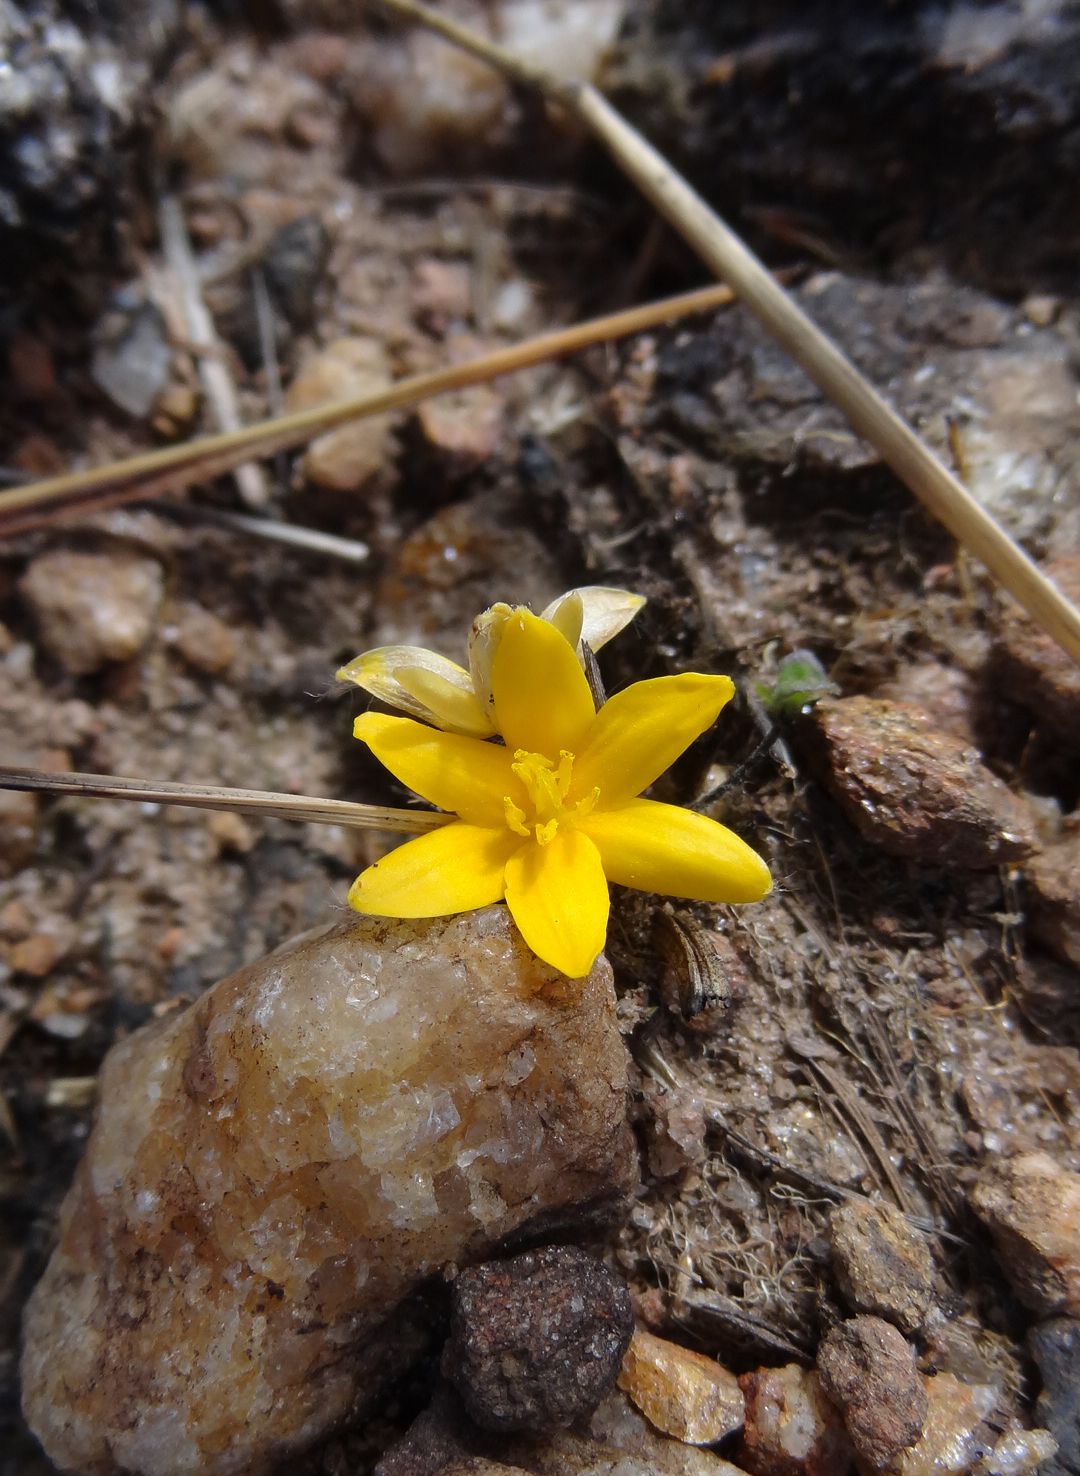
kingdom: Plantae
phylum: Tracheophyta
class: Liliopsida
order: Asparagales
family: Hypoxidaceae
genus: Curculigo
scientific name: Curculigo orchioides
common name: Golden eye-grass
